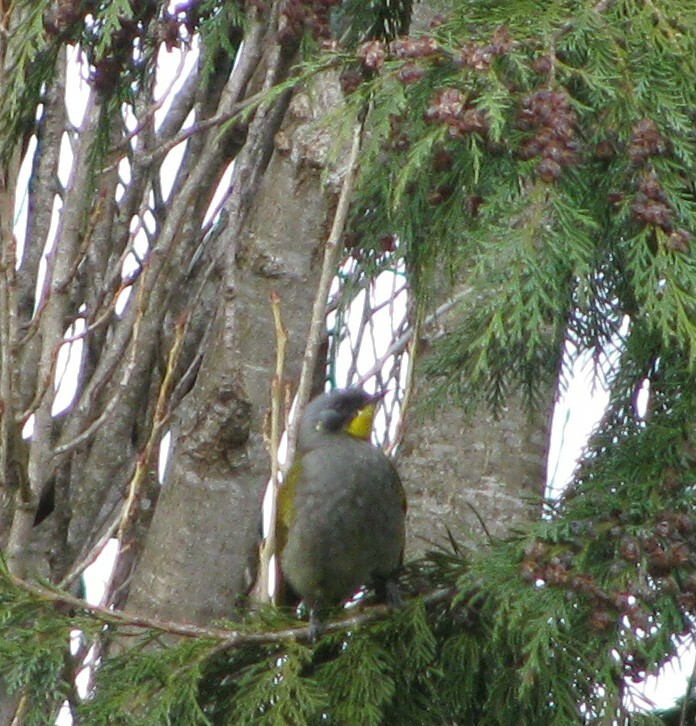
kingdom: Animalia
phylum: Chordata
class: Aves
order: Passeriformes
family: Meliphagidae
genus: Nesoptilotis
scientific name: Nesoptilotis flavicollis
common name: Yellow-throated honeyeater
